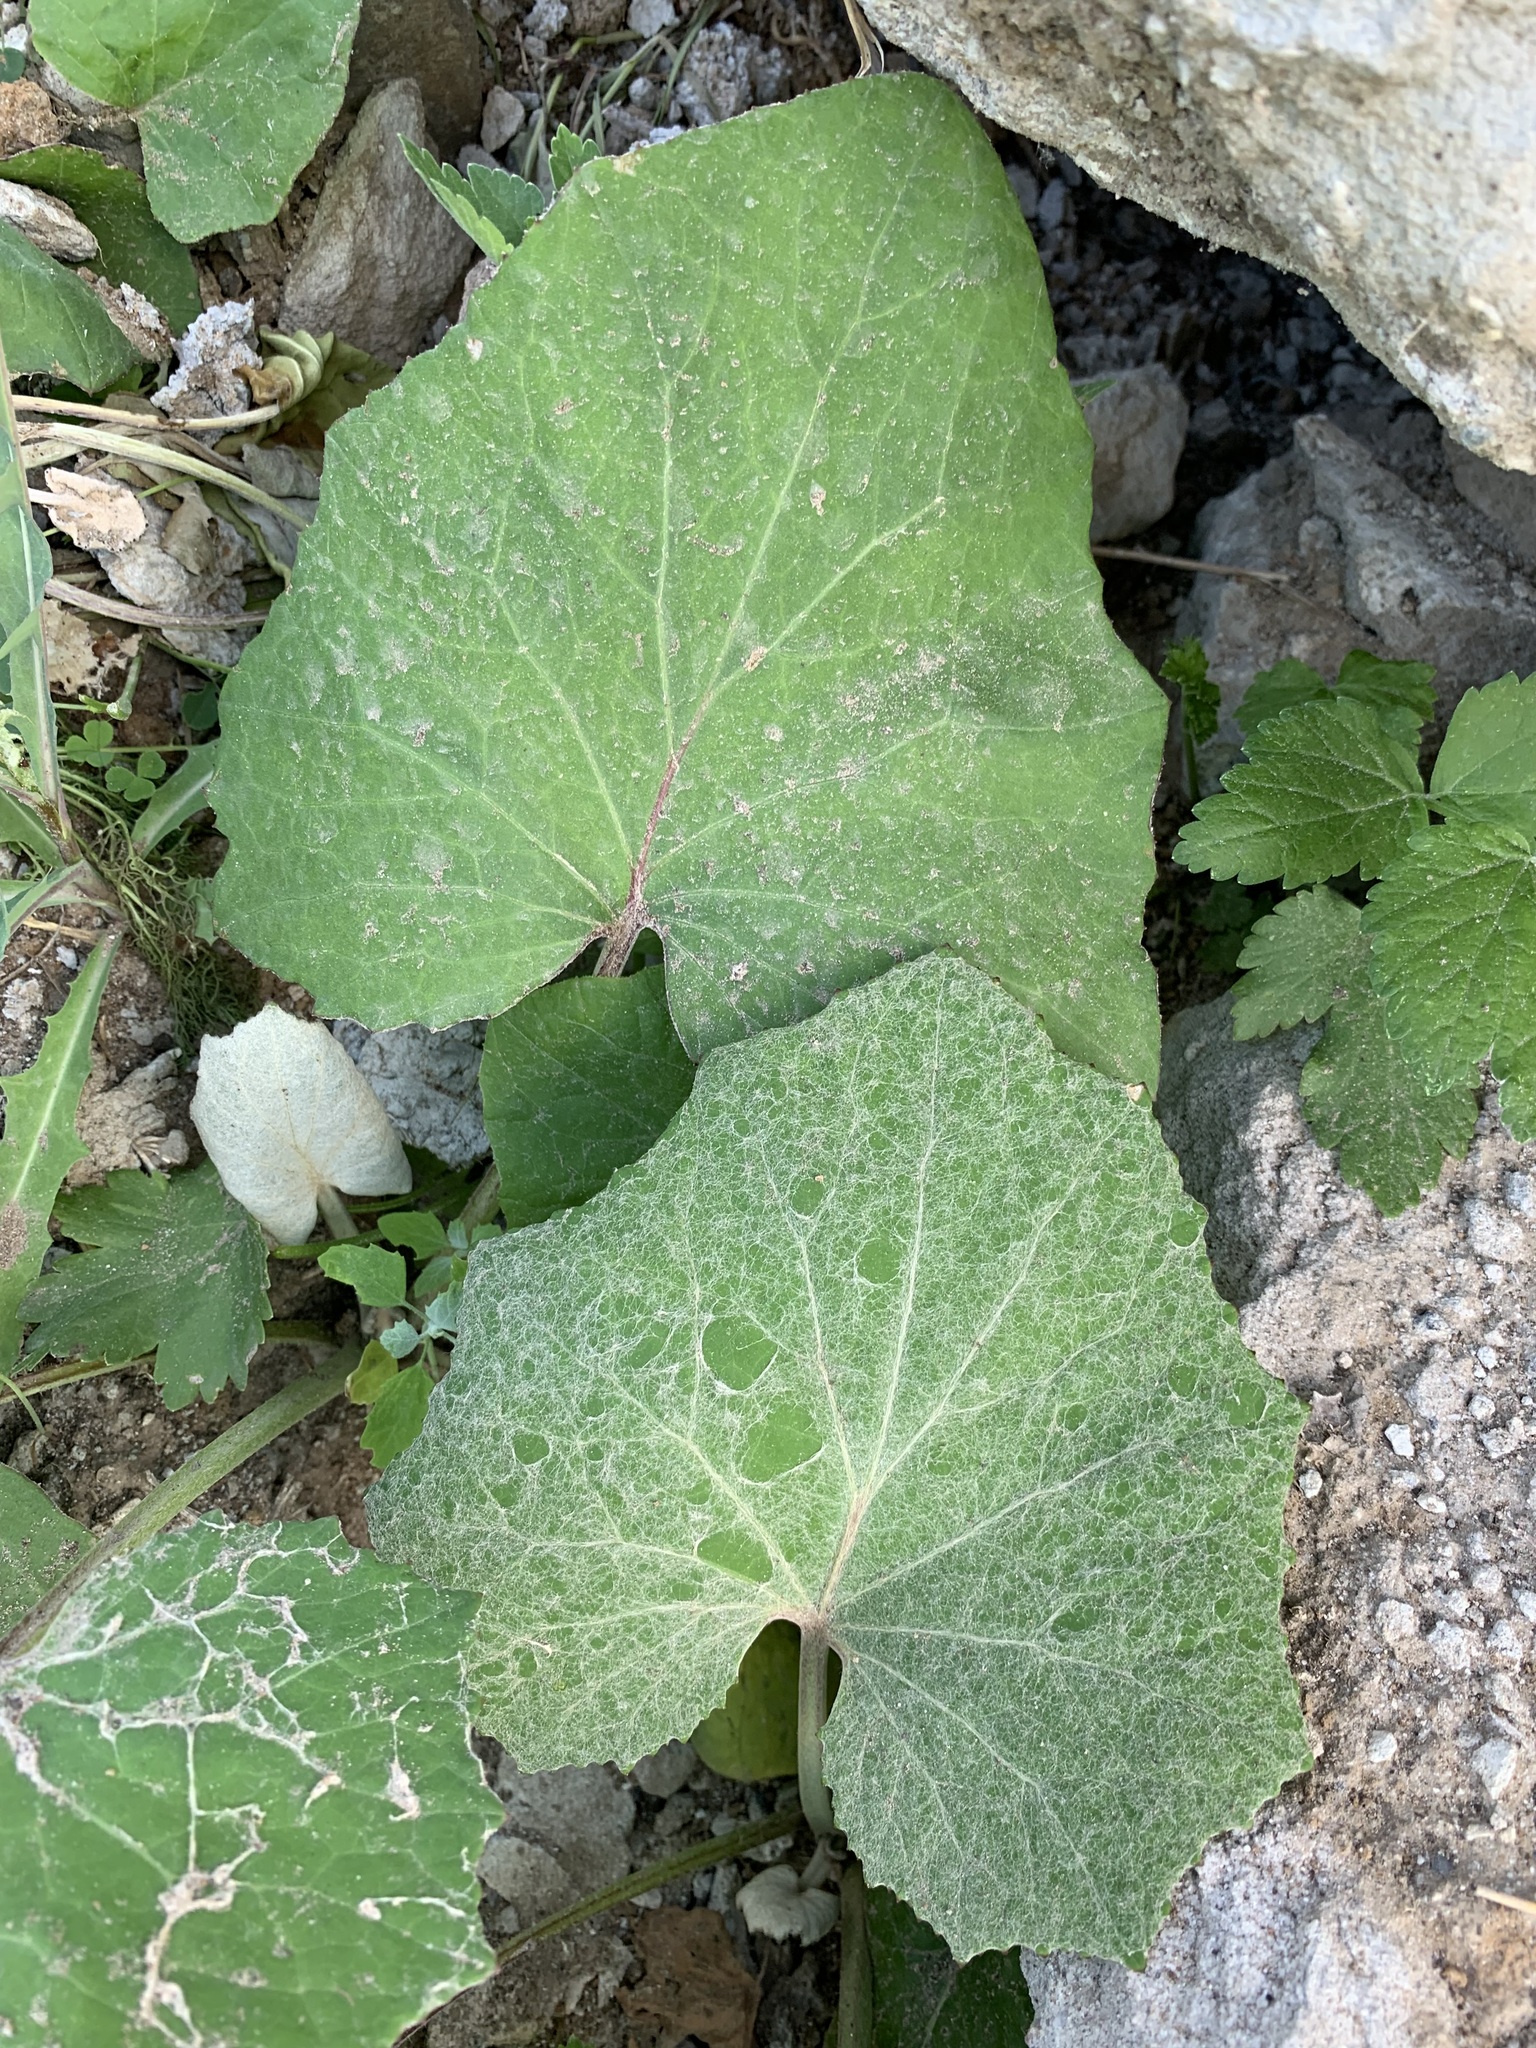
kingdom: Plantae
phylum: Tracheophyta
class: Magnoliopsida
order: Asterales
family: Asteraceae
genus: Tussilago
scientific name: Tussilago farfara
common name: Coltsfoot
